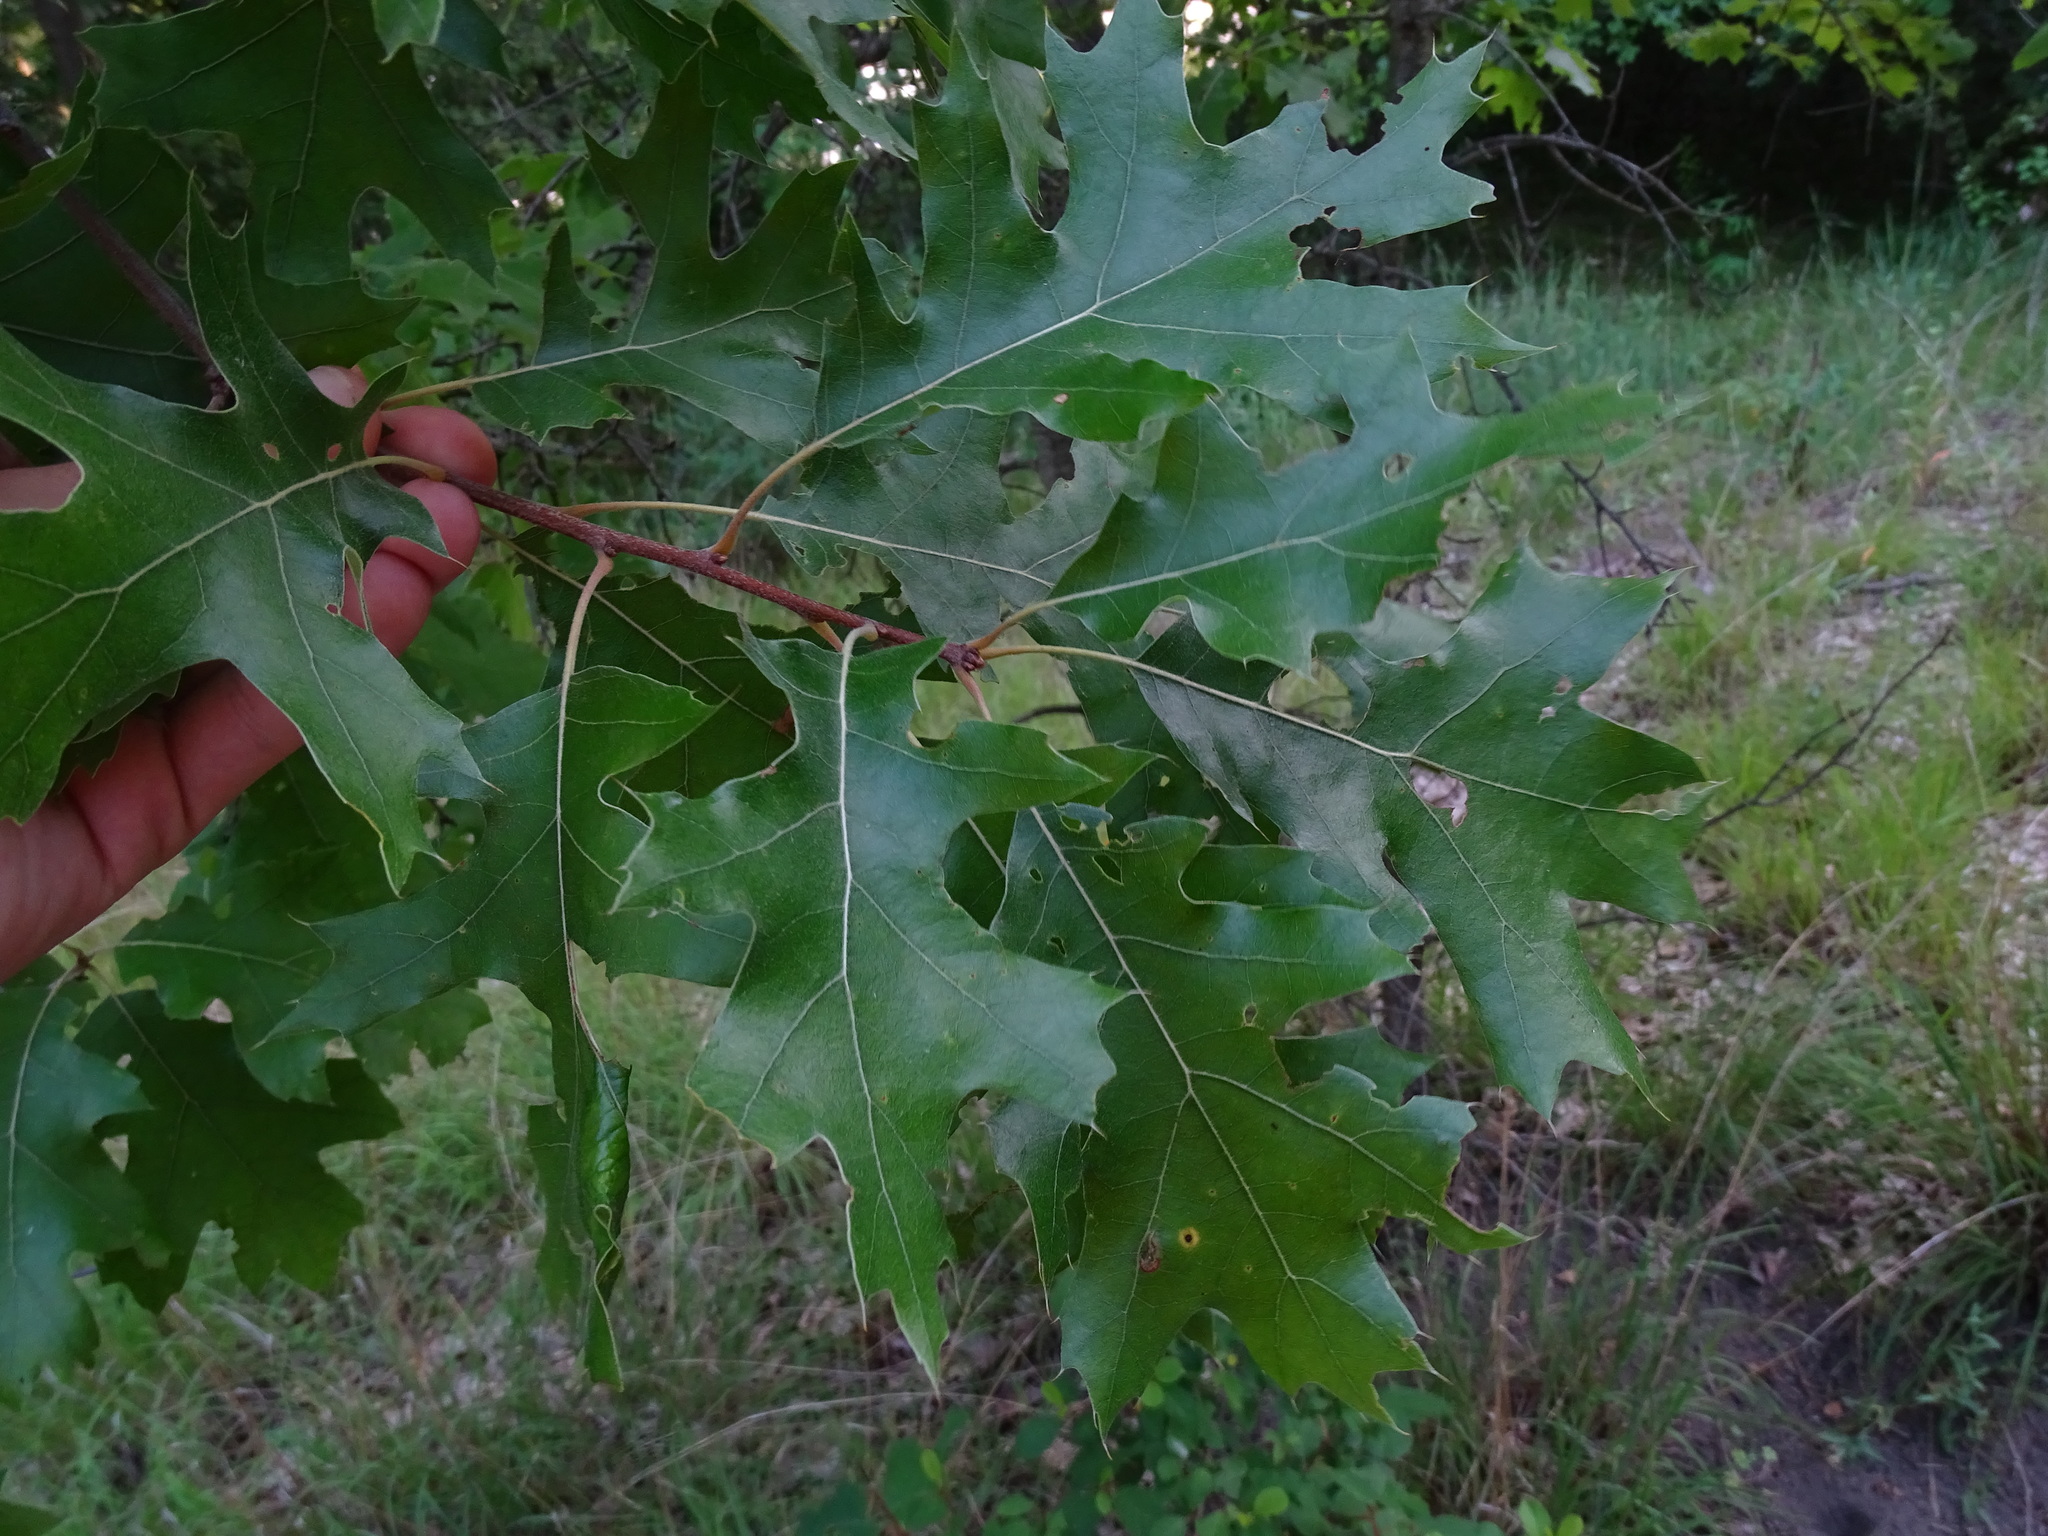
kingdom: Plantae
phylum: Tracheophyta
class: Magnoliopsida
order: Fagales
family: Fagaceae
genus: Quercus
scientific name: Quercus velutina
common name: Black oak
